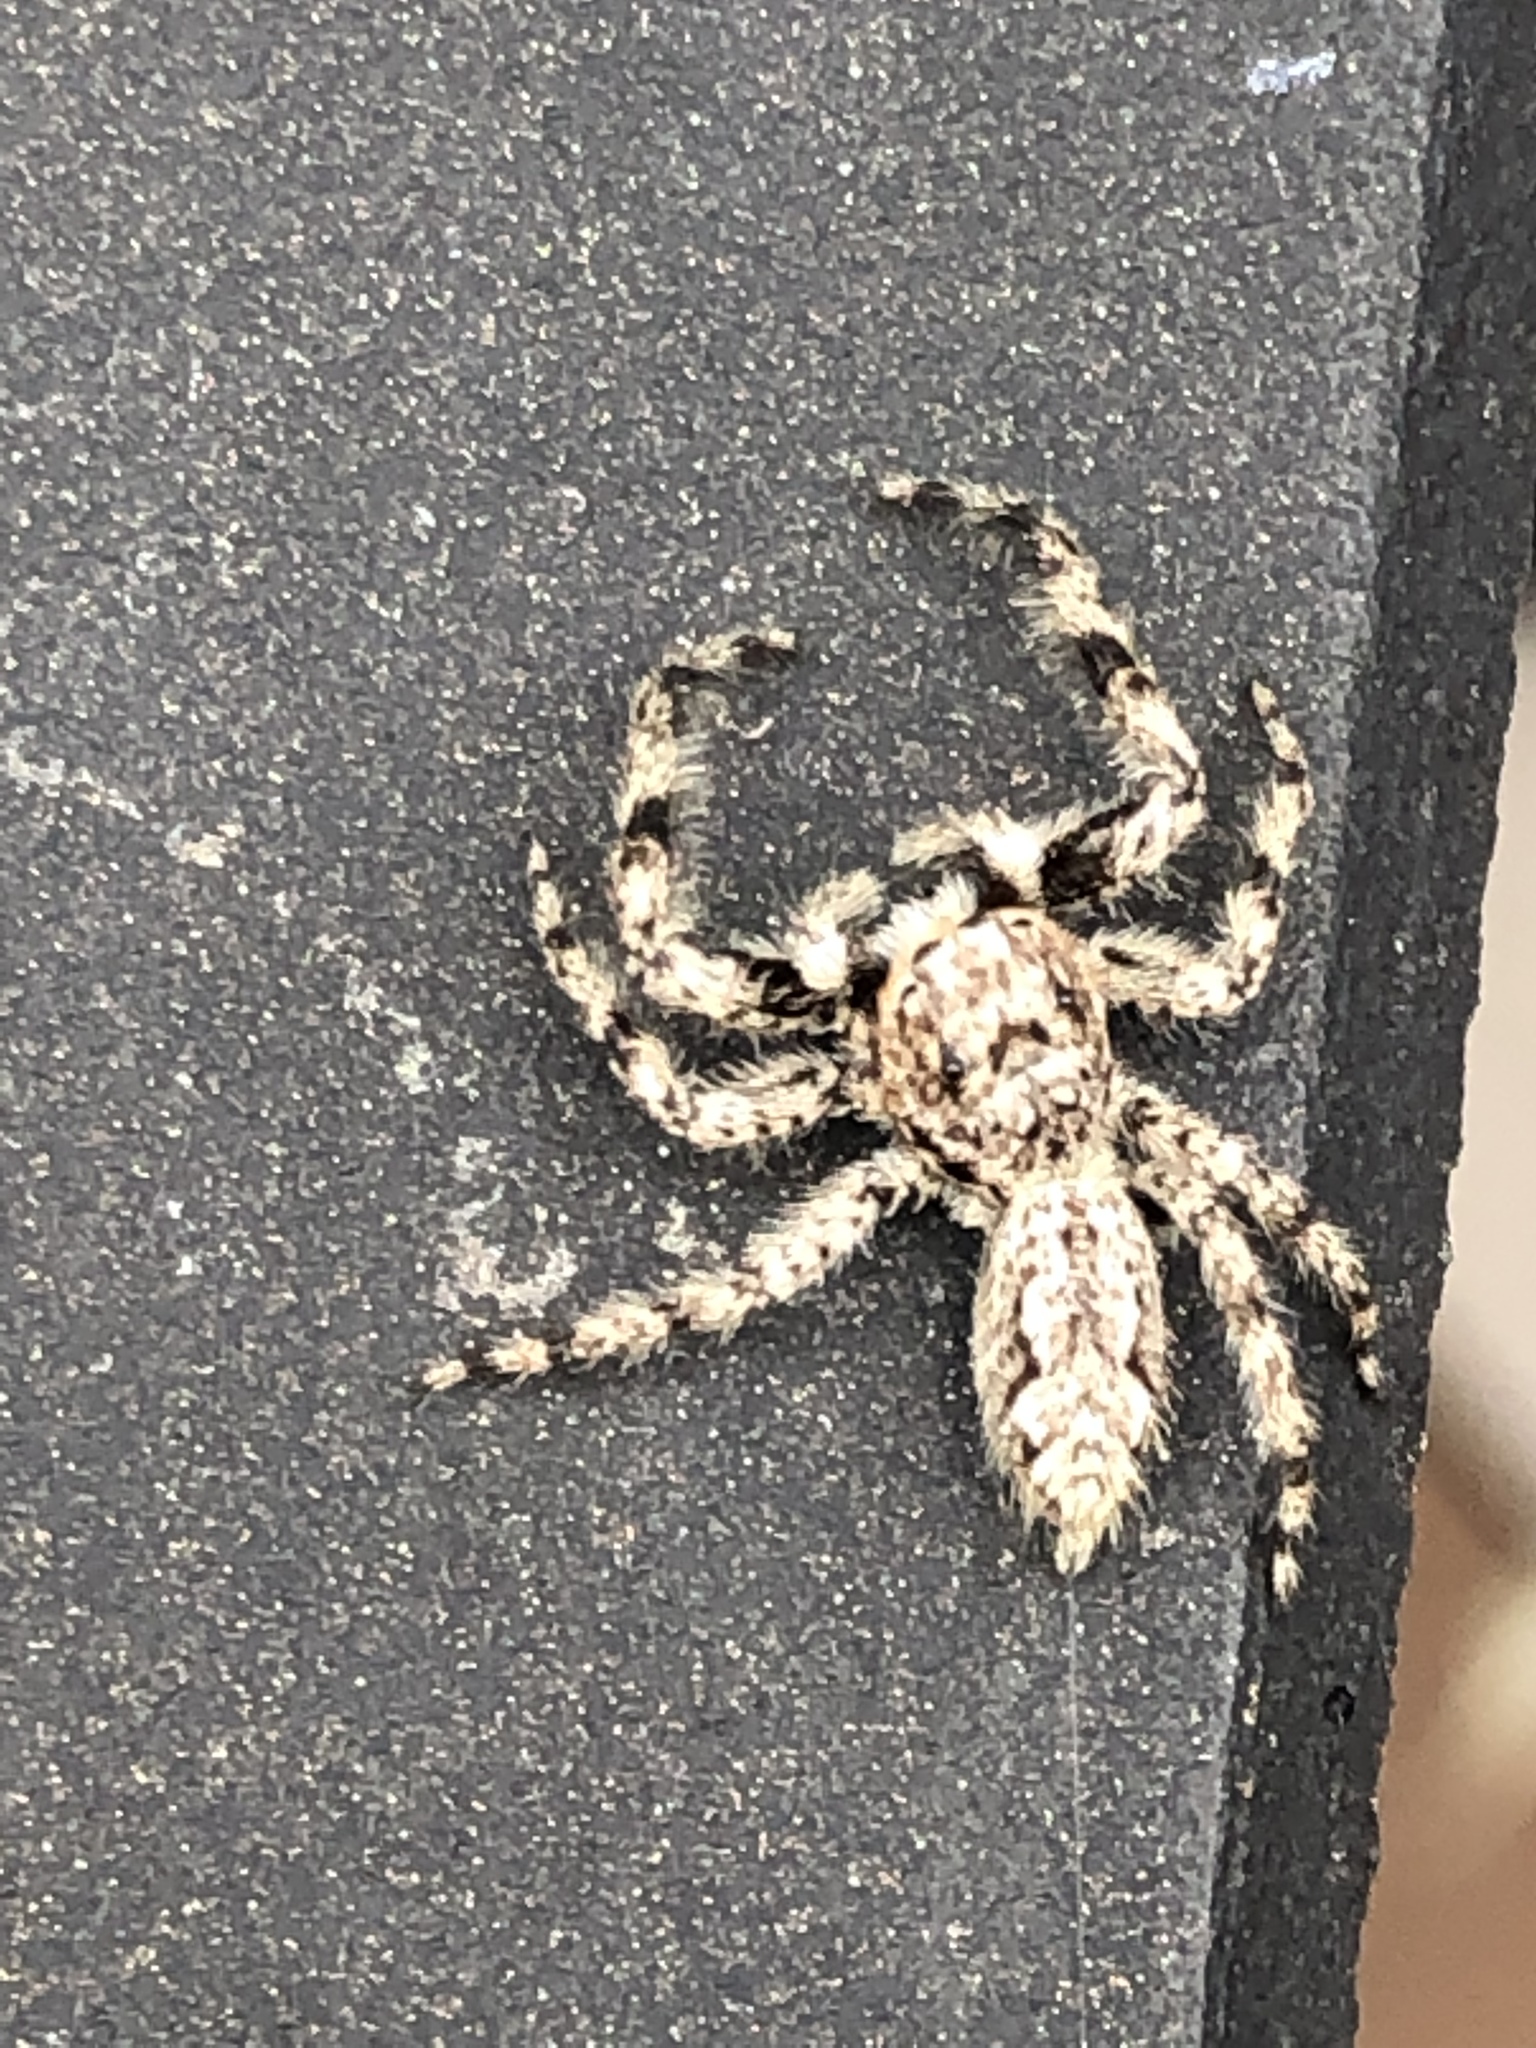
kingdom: Animalia
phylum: Arthropoda
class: Arachnida
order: Araneae
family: Salticidae
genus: Platycryptus
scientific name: Platycryptus undatus
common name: Tan jumping spider
